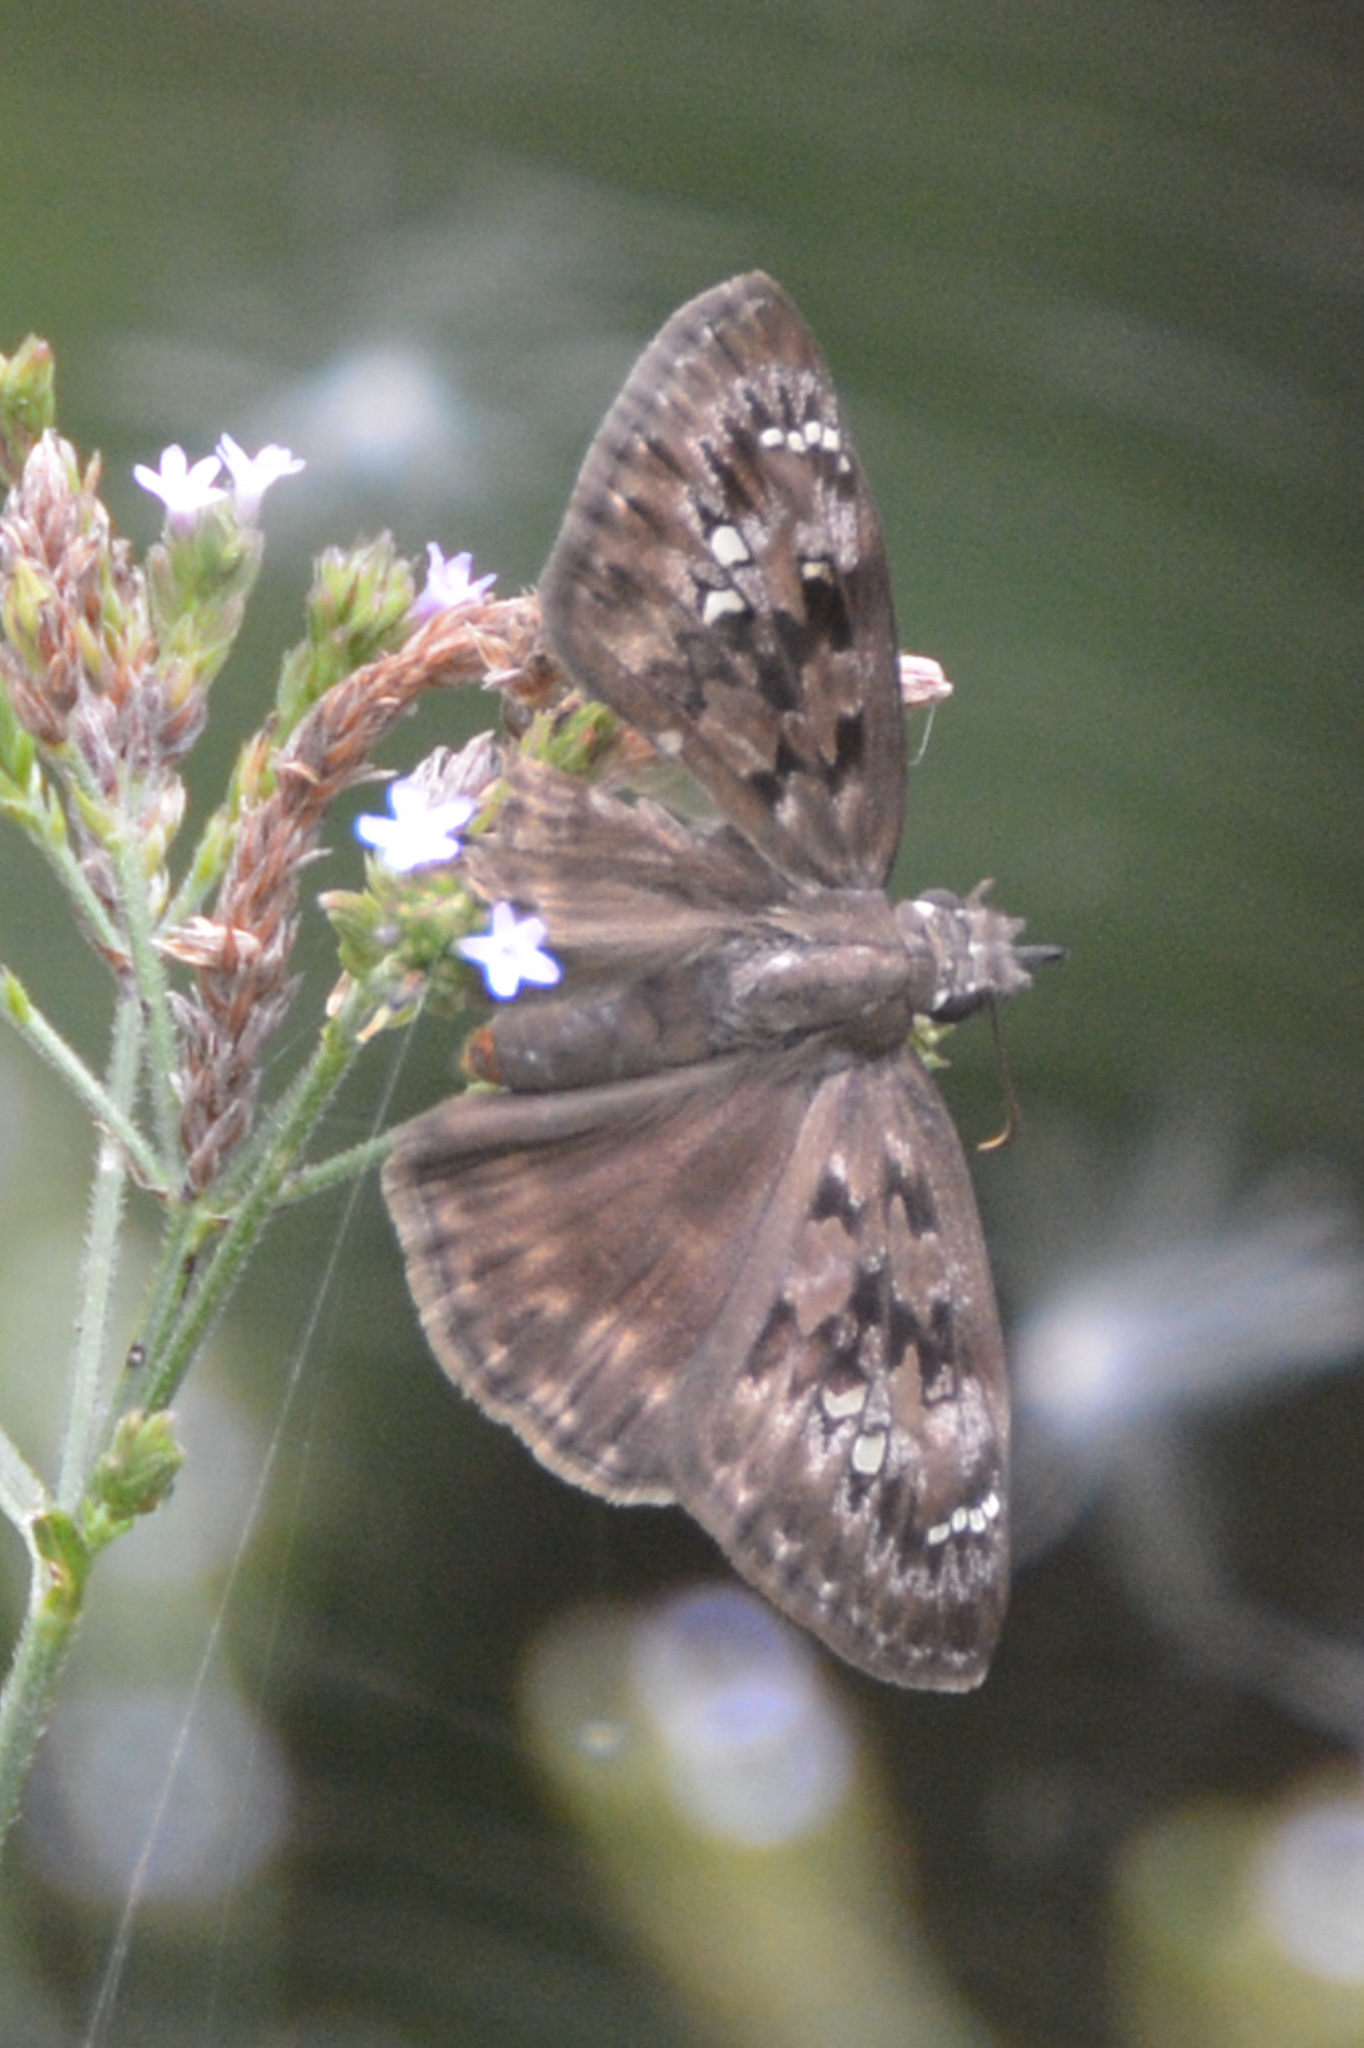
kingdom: Animalia
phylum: Arthropoda
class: Insecta
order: Lepidoptera
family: Hesperiidae
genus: Erynnis
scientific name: Erynnis horatius
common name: Horace's duskywing
